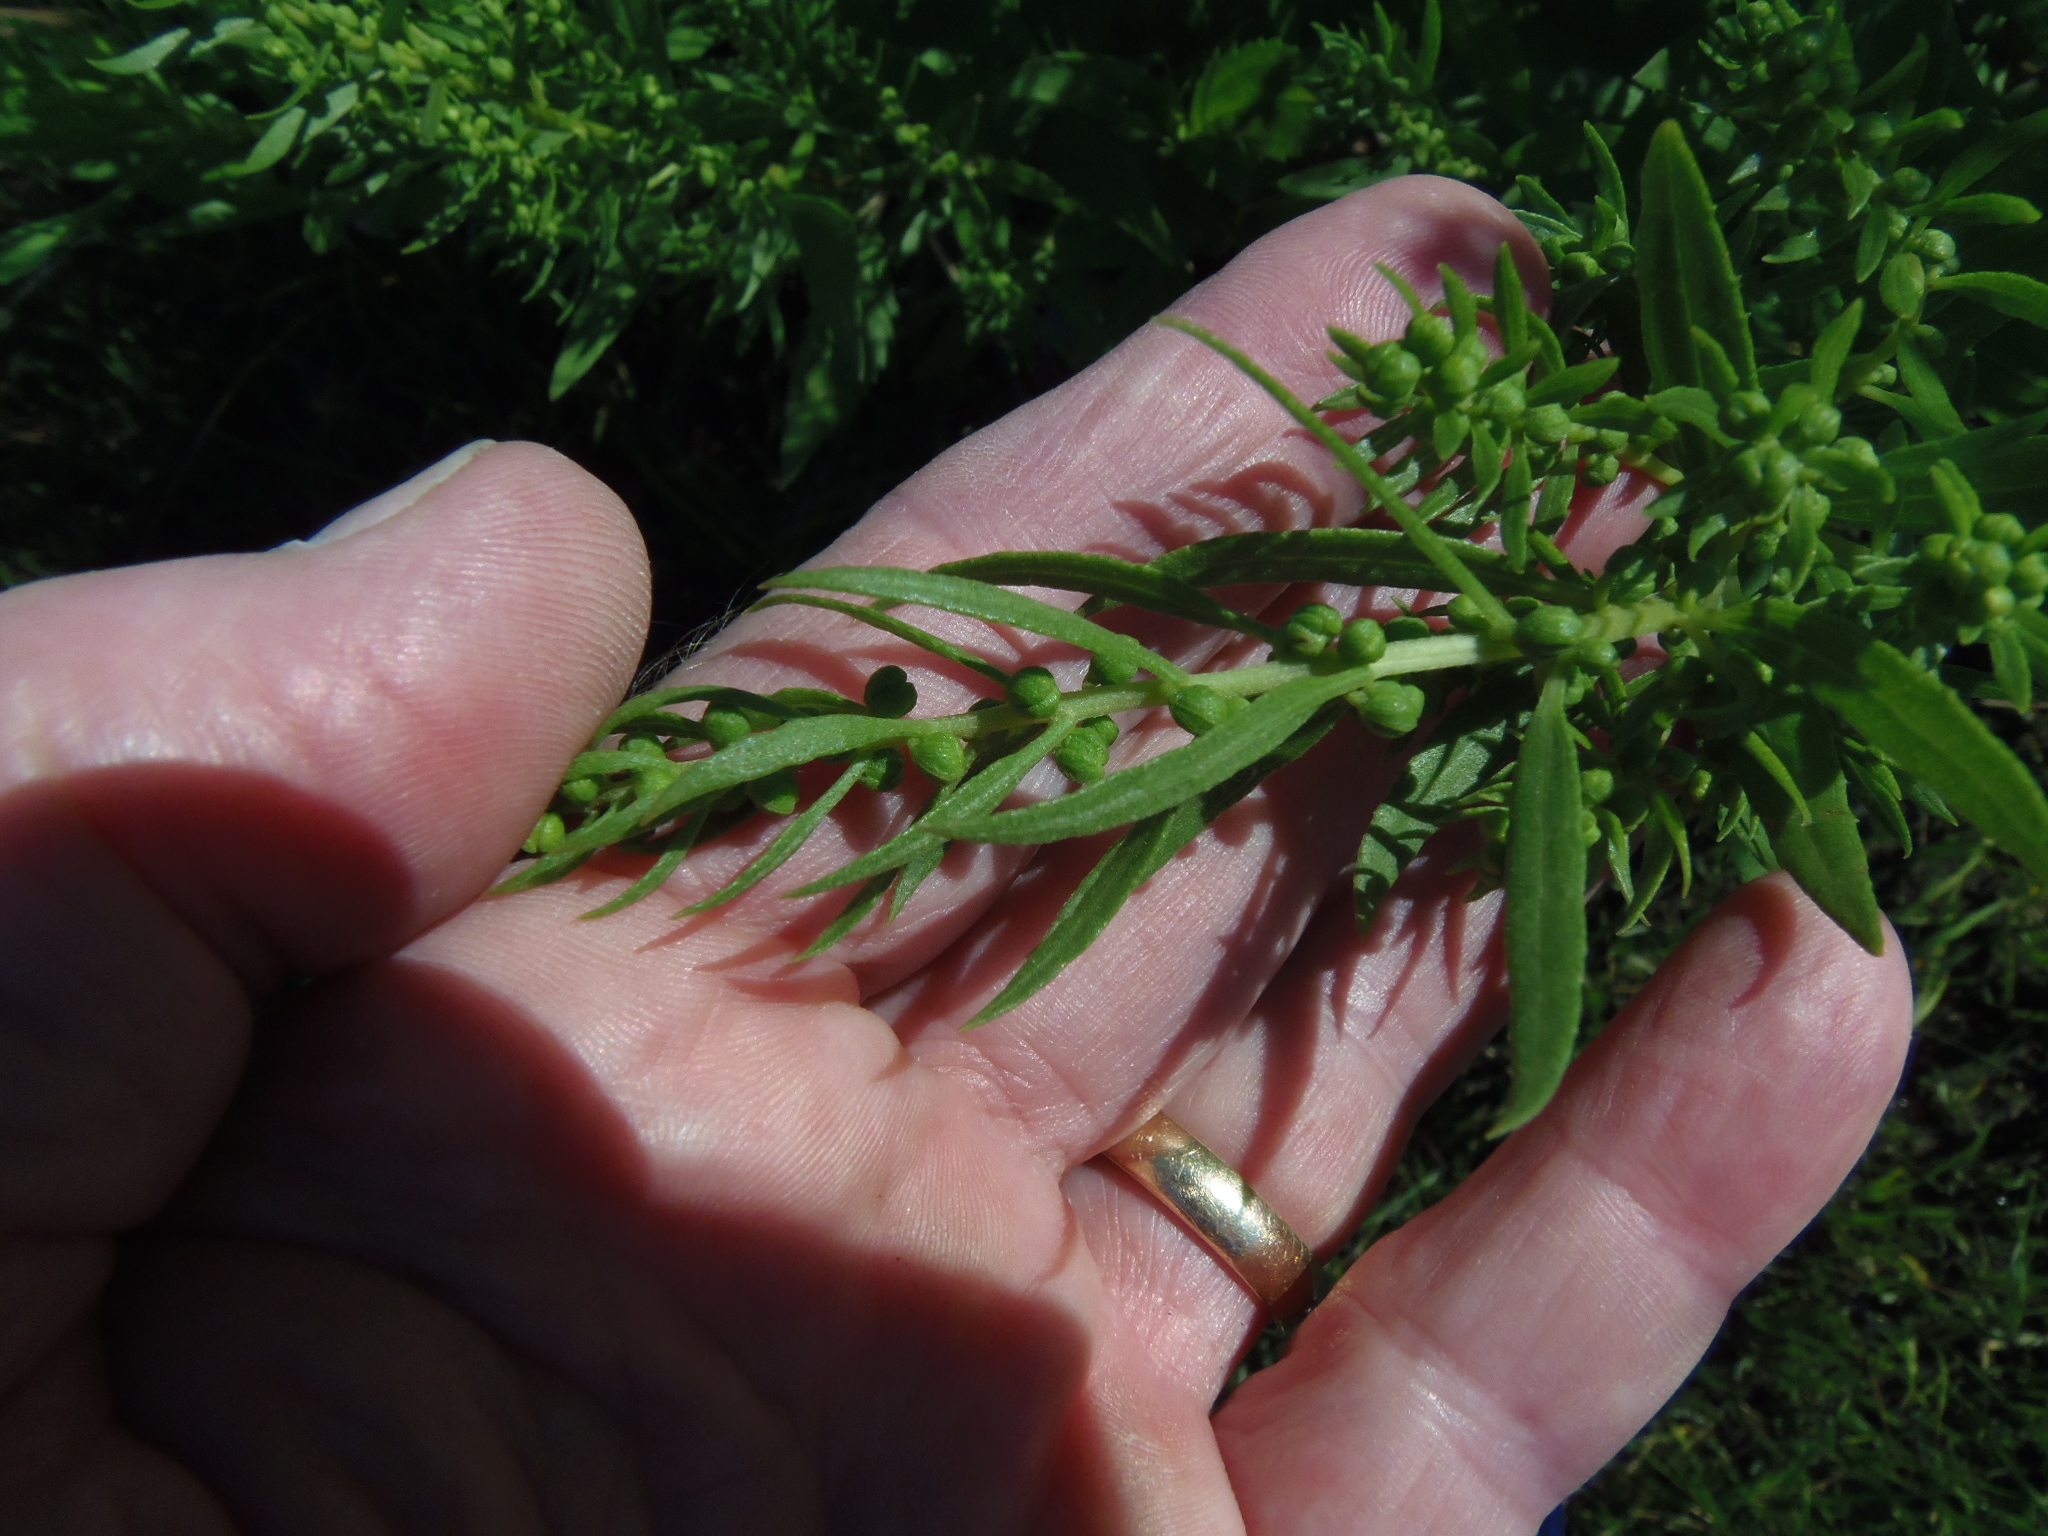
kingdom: Plantae
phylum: Tracheophyta
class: Magnoliopsida
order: Asterales
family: Asteraceae
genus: Iva
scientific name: Iva frutescens
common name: Big-leaved marsh-elder
